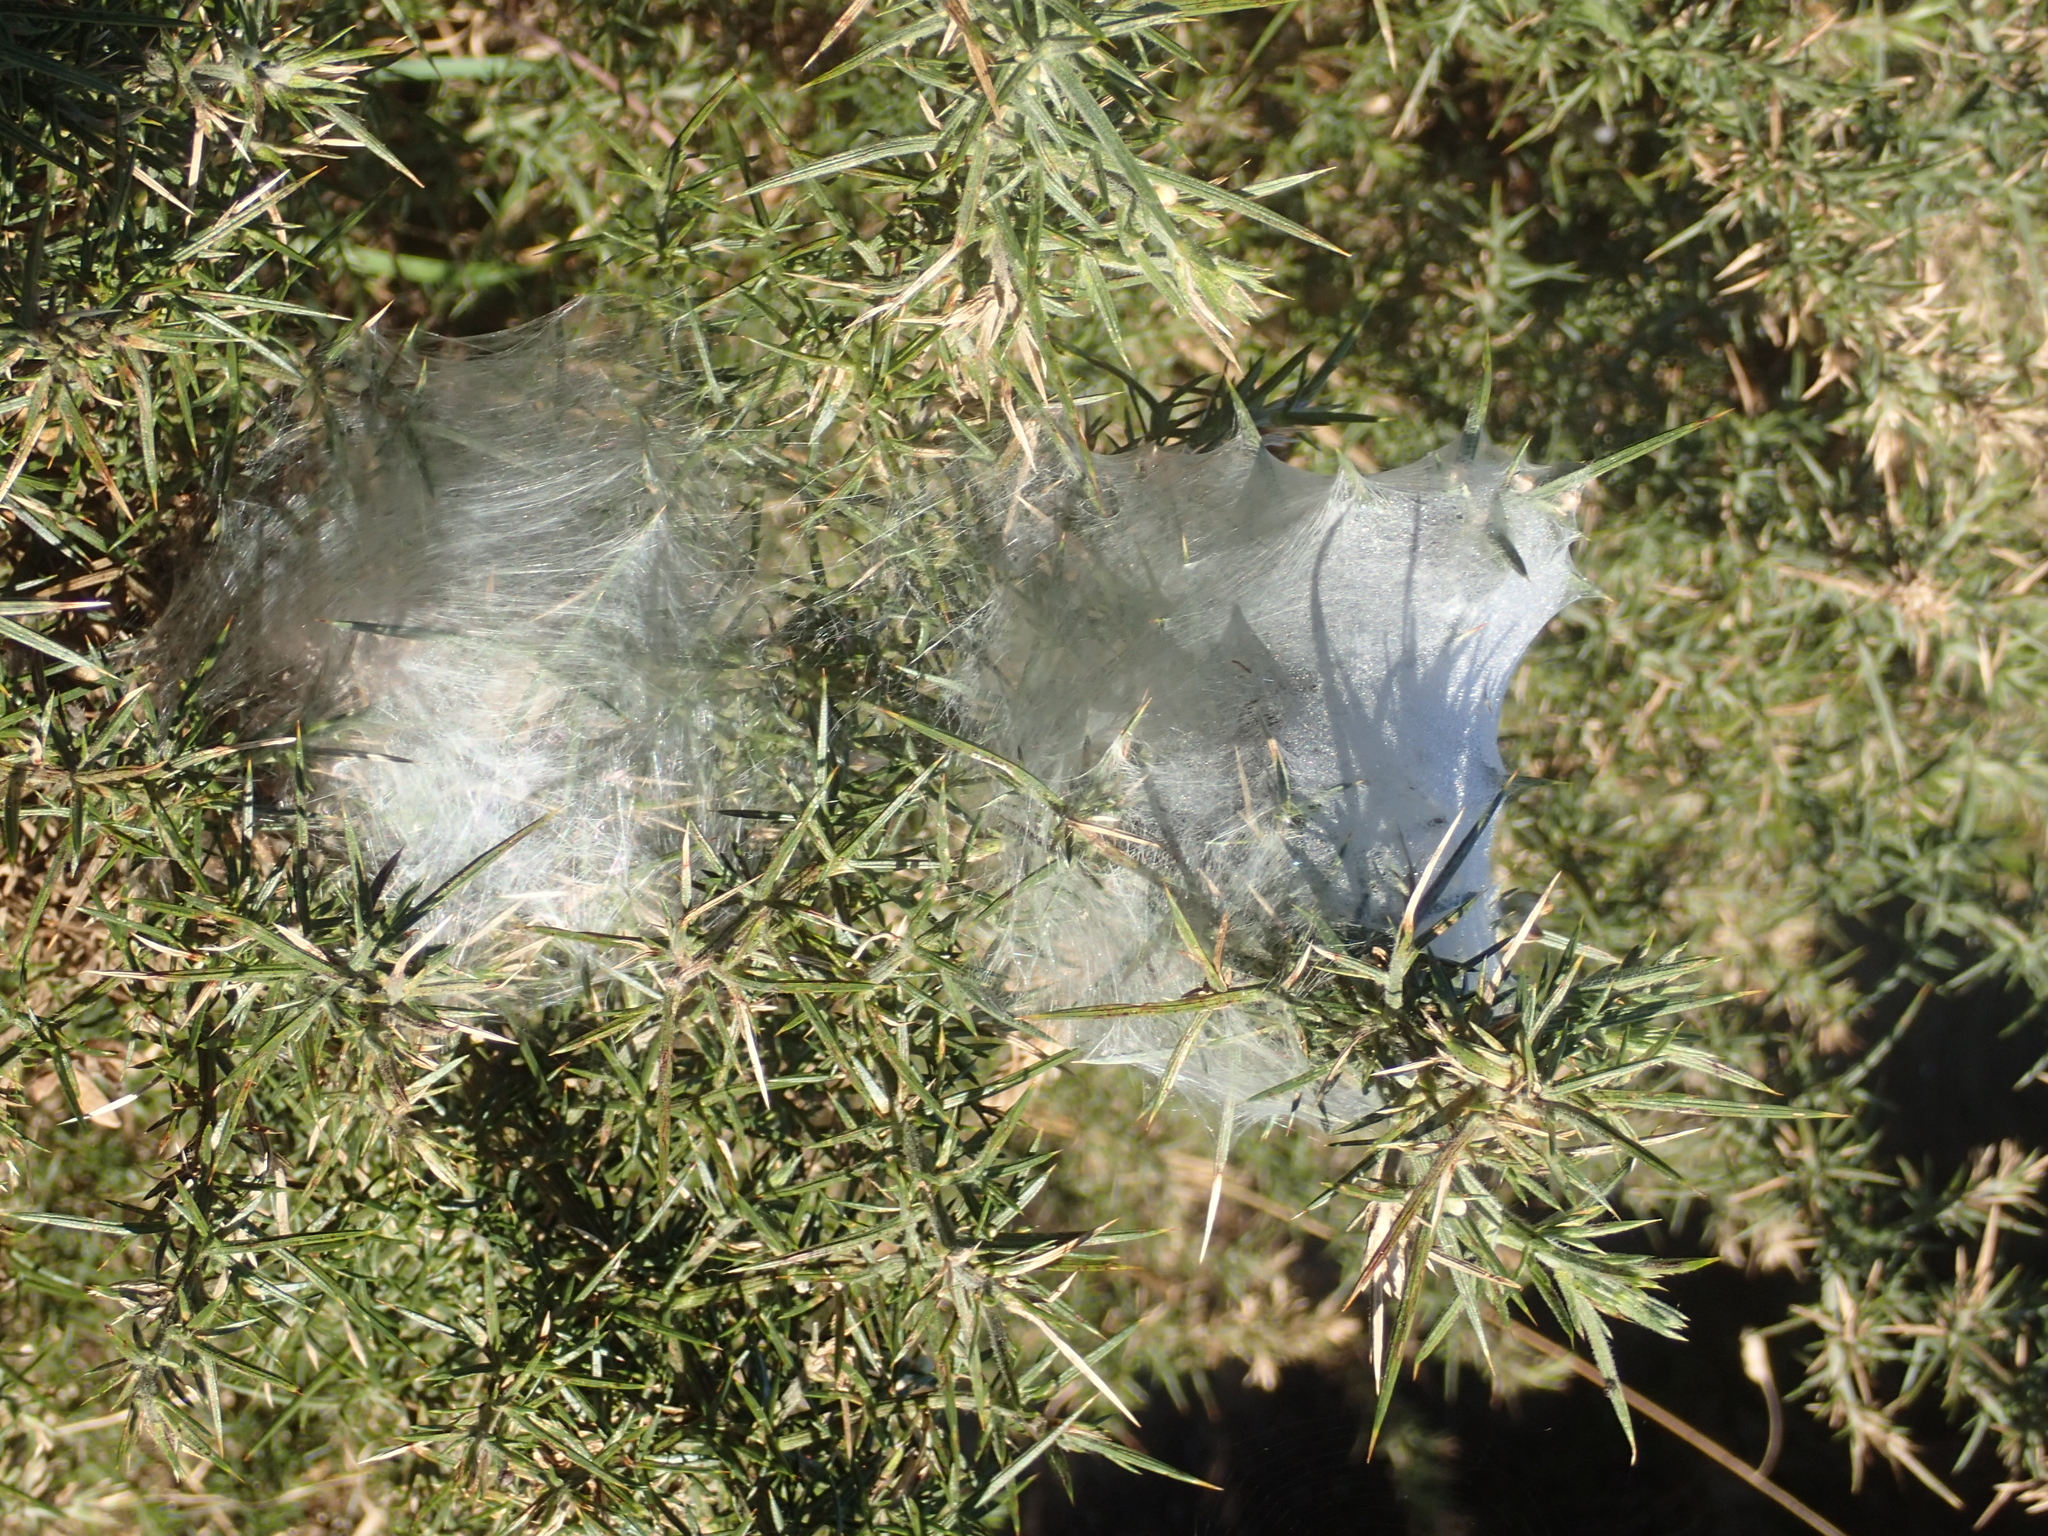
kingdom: Animalia
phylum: Arthropoda
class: Arachnida
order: Araneae
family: Pisauridae
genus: Dolomedes
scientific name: Dolomedes minor
